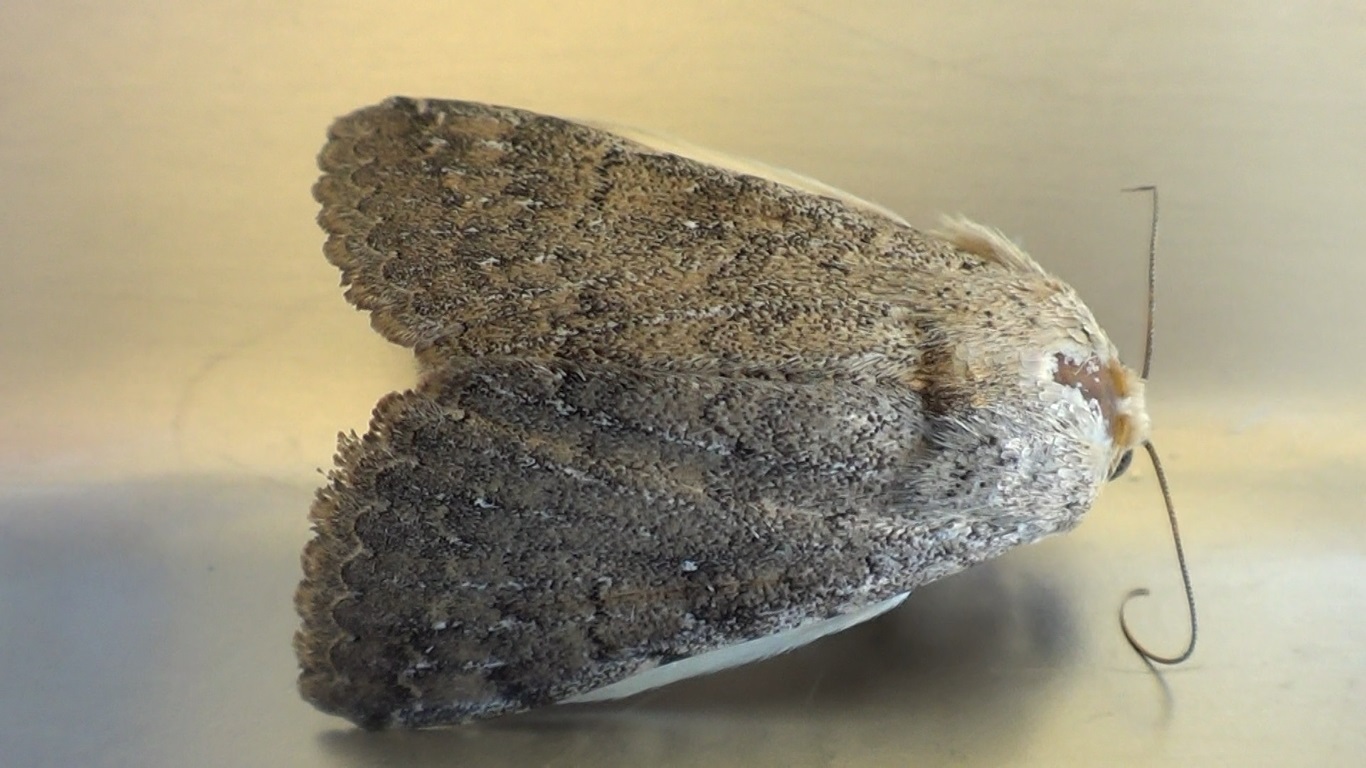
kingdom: Animalia
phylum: Arthropoda
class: Insecta
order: Lepidoptera
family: Erebidae
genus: Pandesma
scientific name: Pandesma robusta
